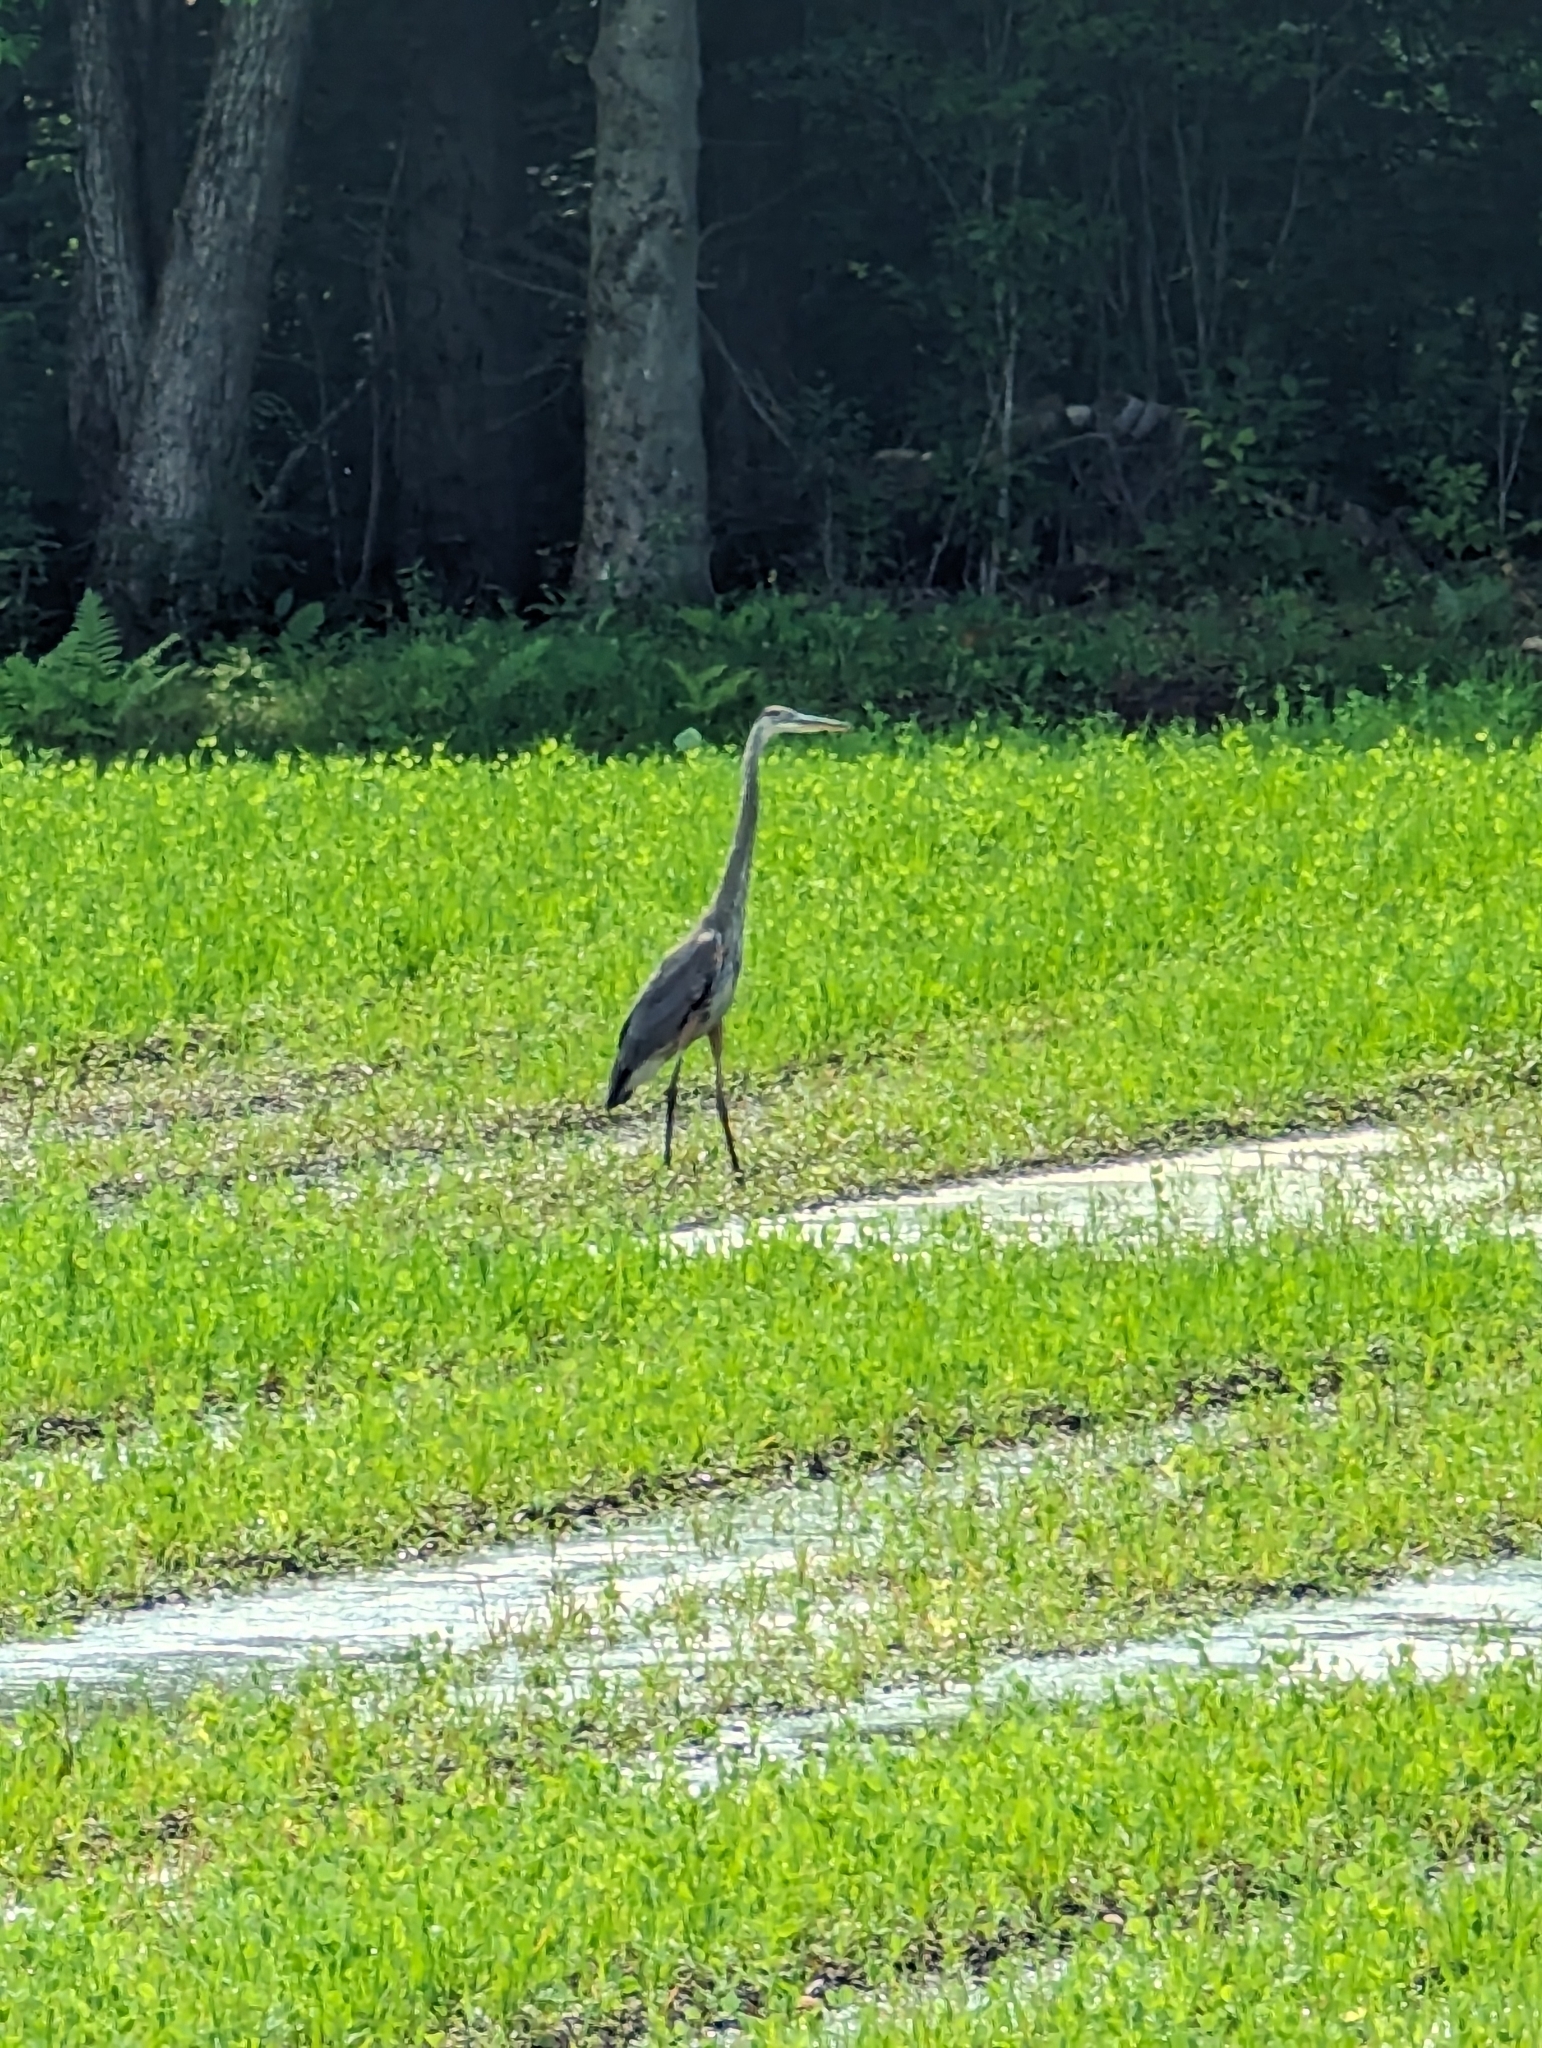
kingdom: Animalia
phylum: Chordata
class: Aves
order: Pelecaniformes
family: Ardeidae
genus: Ardea
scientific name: Ardea herodias
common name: Great blue heron
